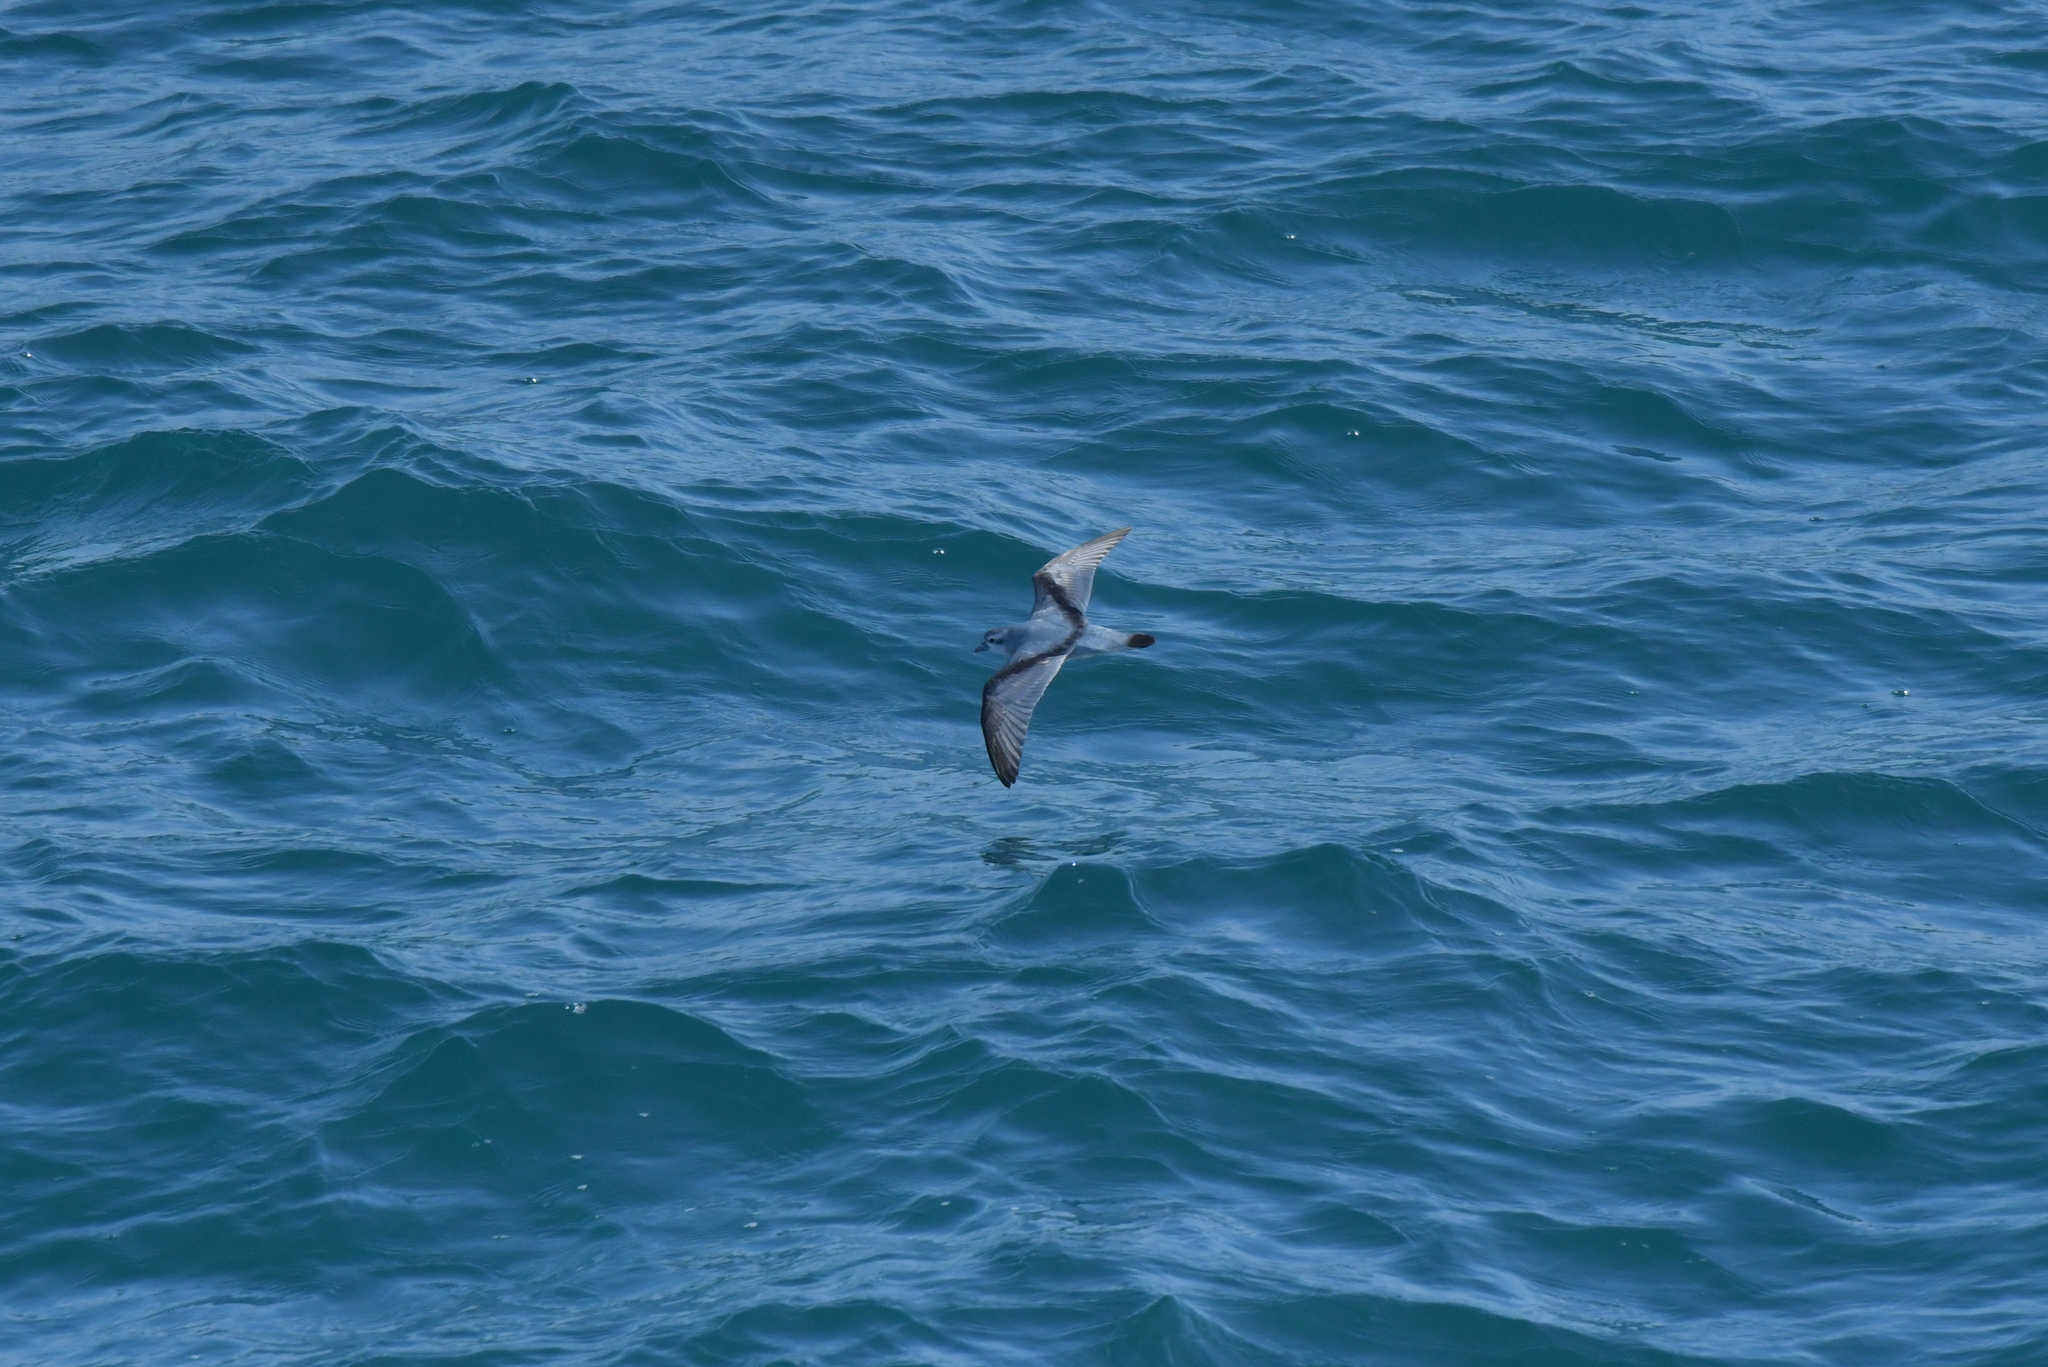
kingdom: Animalia
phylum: Chordata
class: Aves
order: Procellariiformes
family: Procellariidae
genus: Pachyptila
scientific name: Pachyptila turtur
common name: Fairy prion
